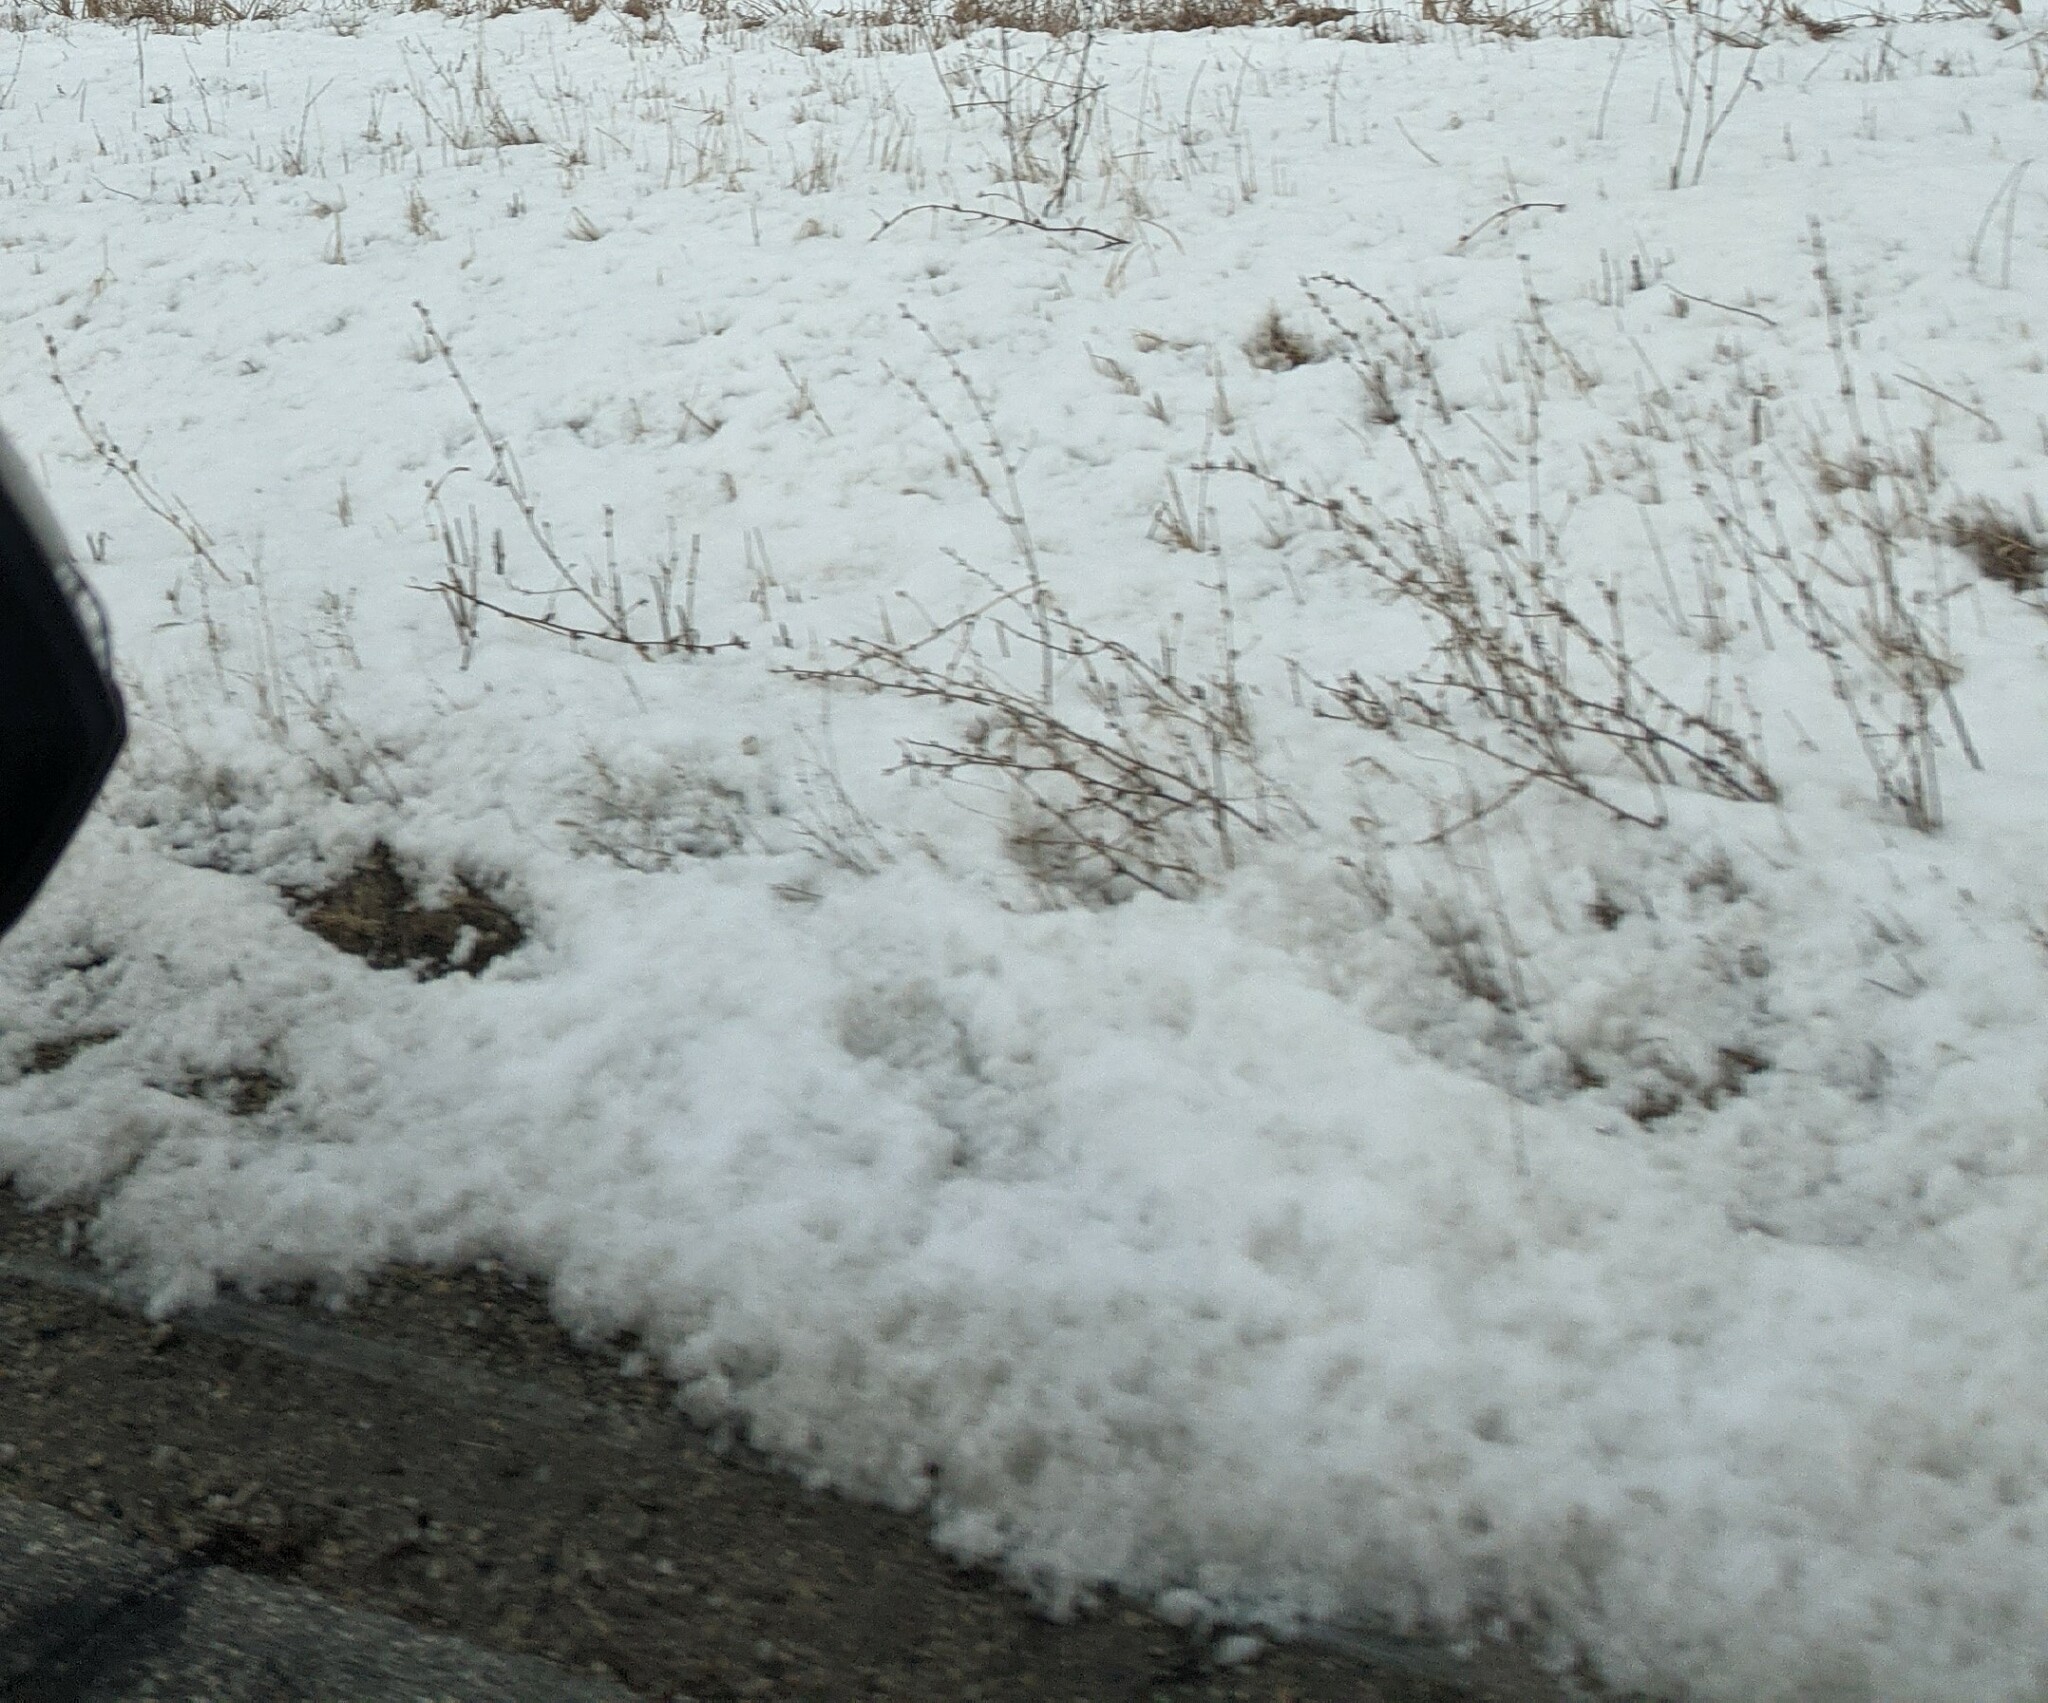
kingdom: Plantae
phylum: Tracheophyta
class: Magnoliopsida
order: Asterales
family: Asteraceae
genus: Cichorium
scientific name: Cichorium intybus
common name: Chicory
